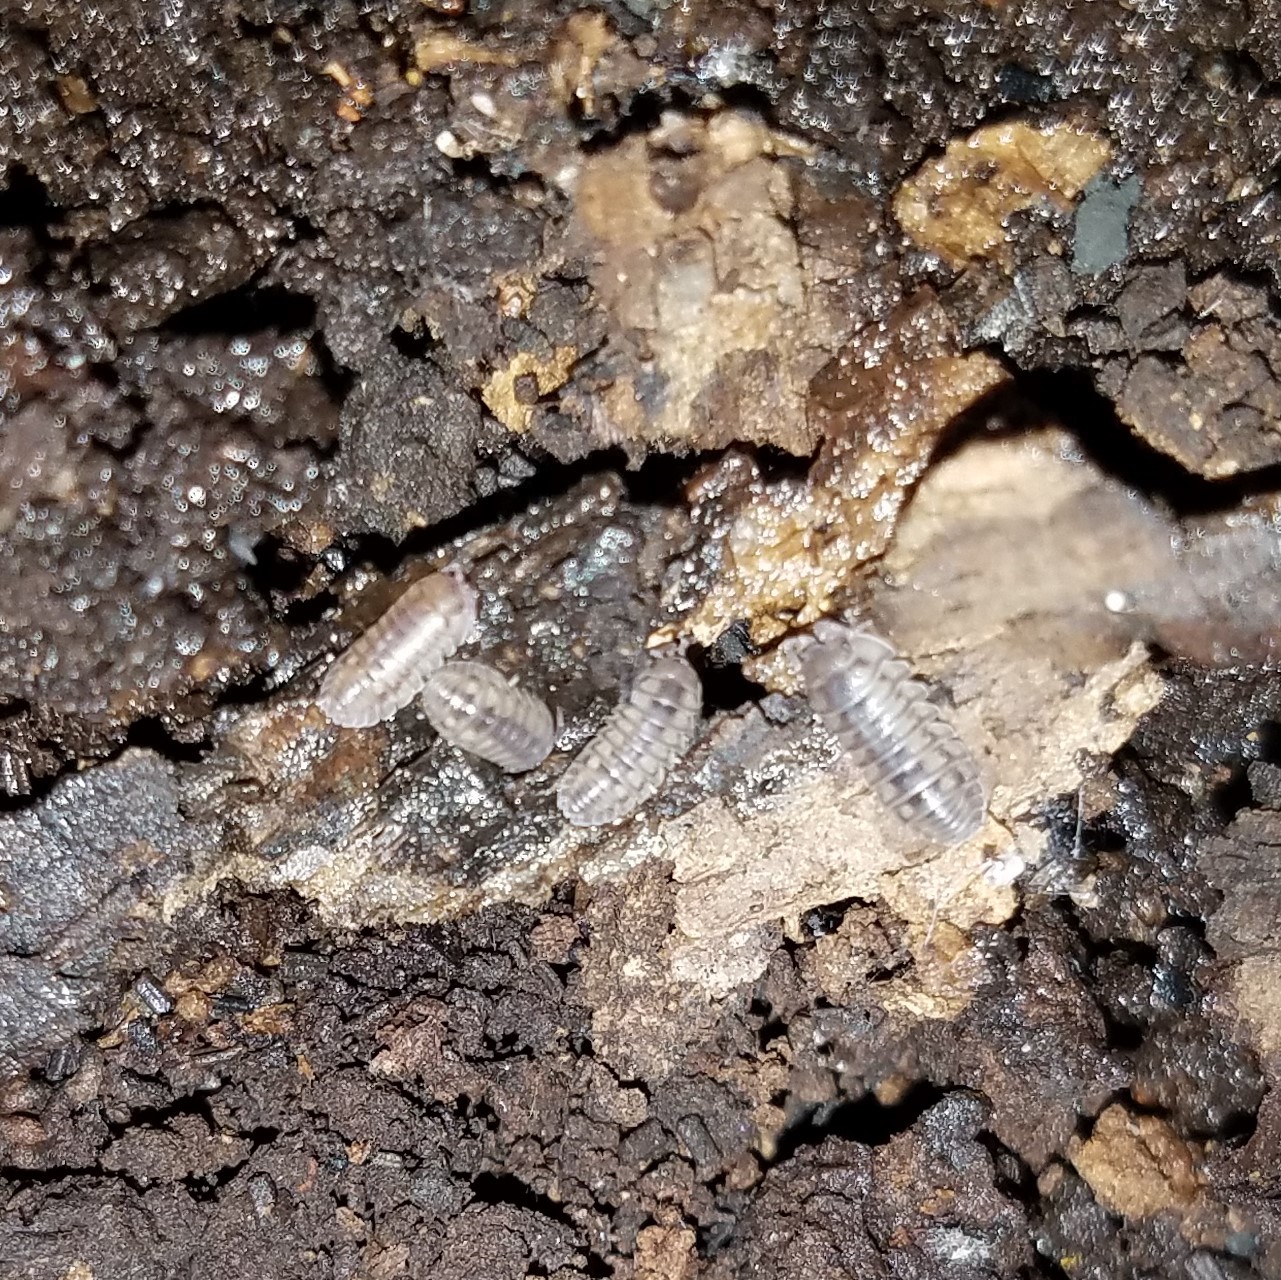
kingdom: Animalia
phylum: Arthropoda
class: Malacostraca
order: Isopoda
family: Armadillidiidae
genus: Armadillidium
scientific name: Armadillidium nasatum
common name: Isopod
